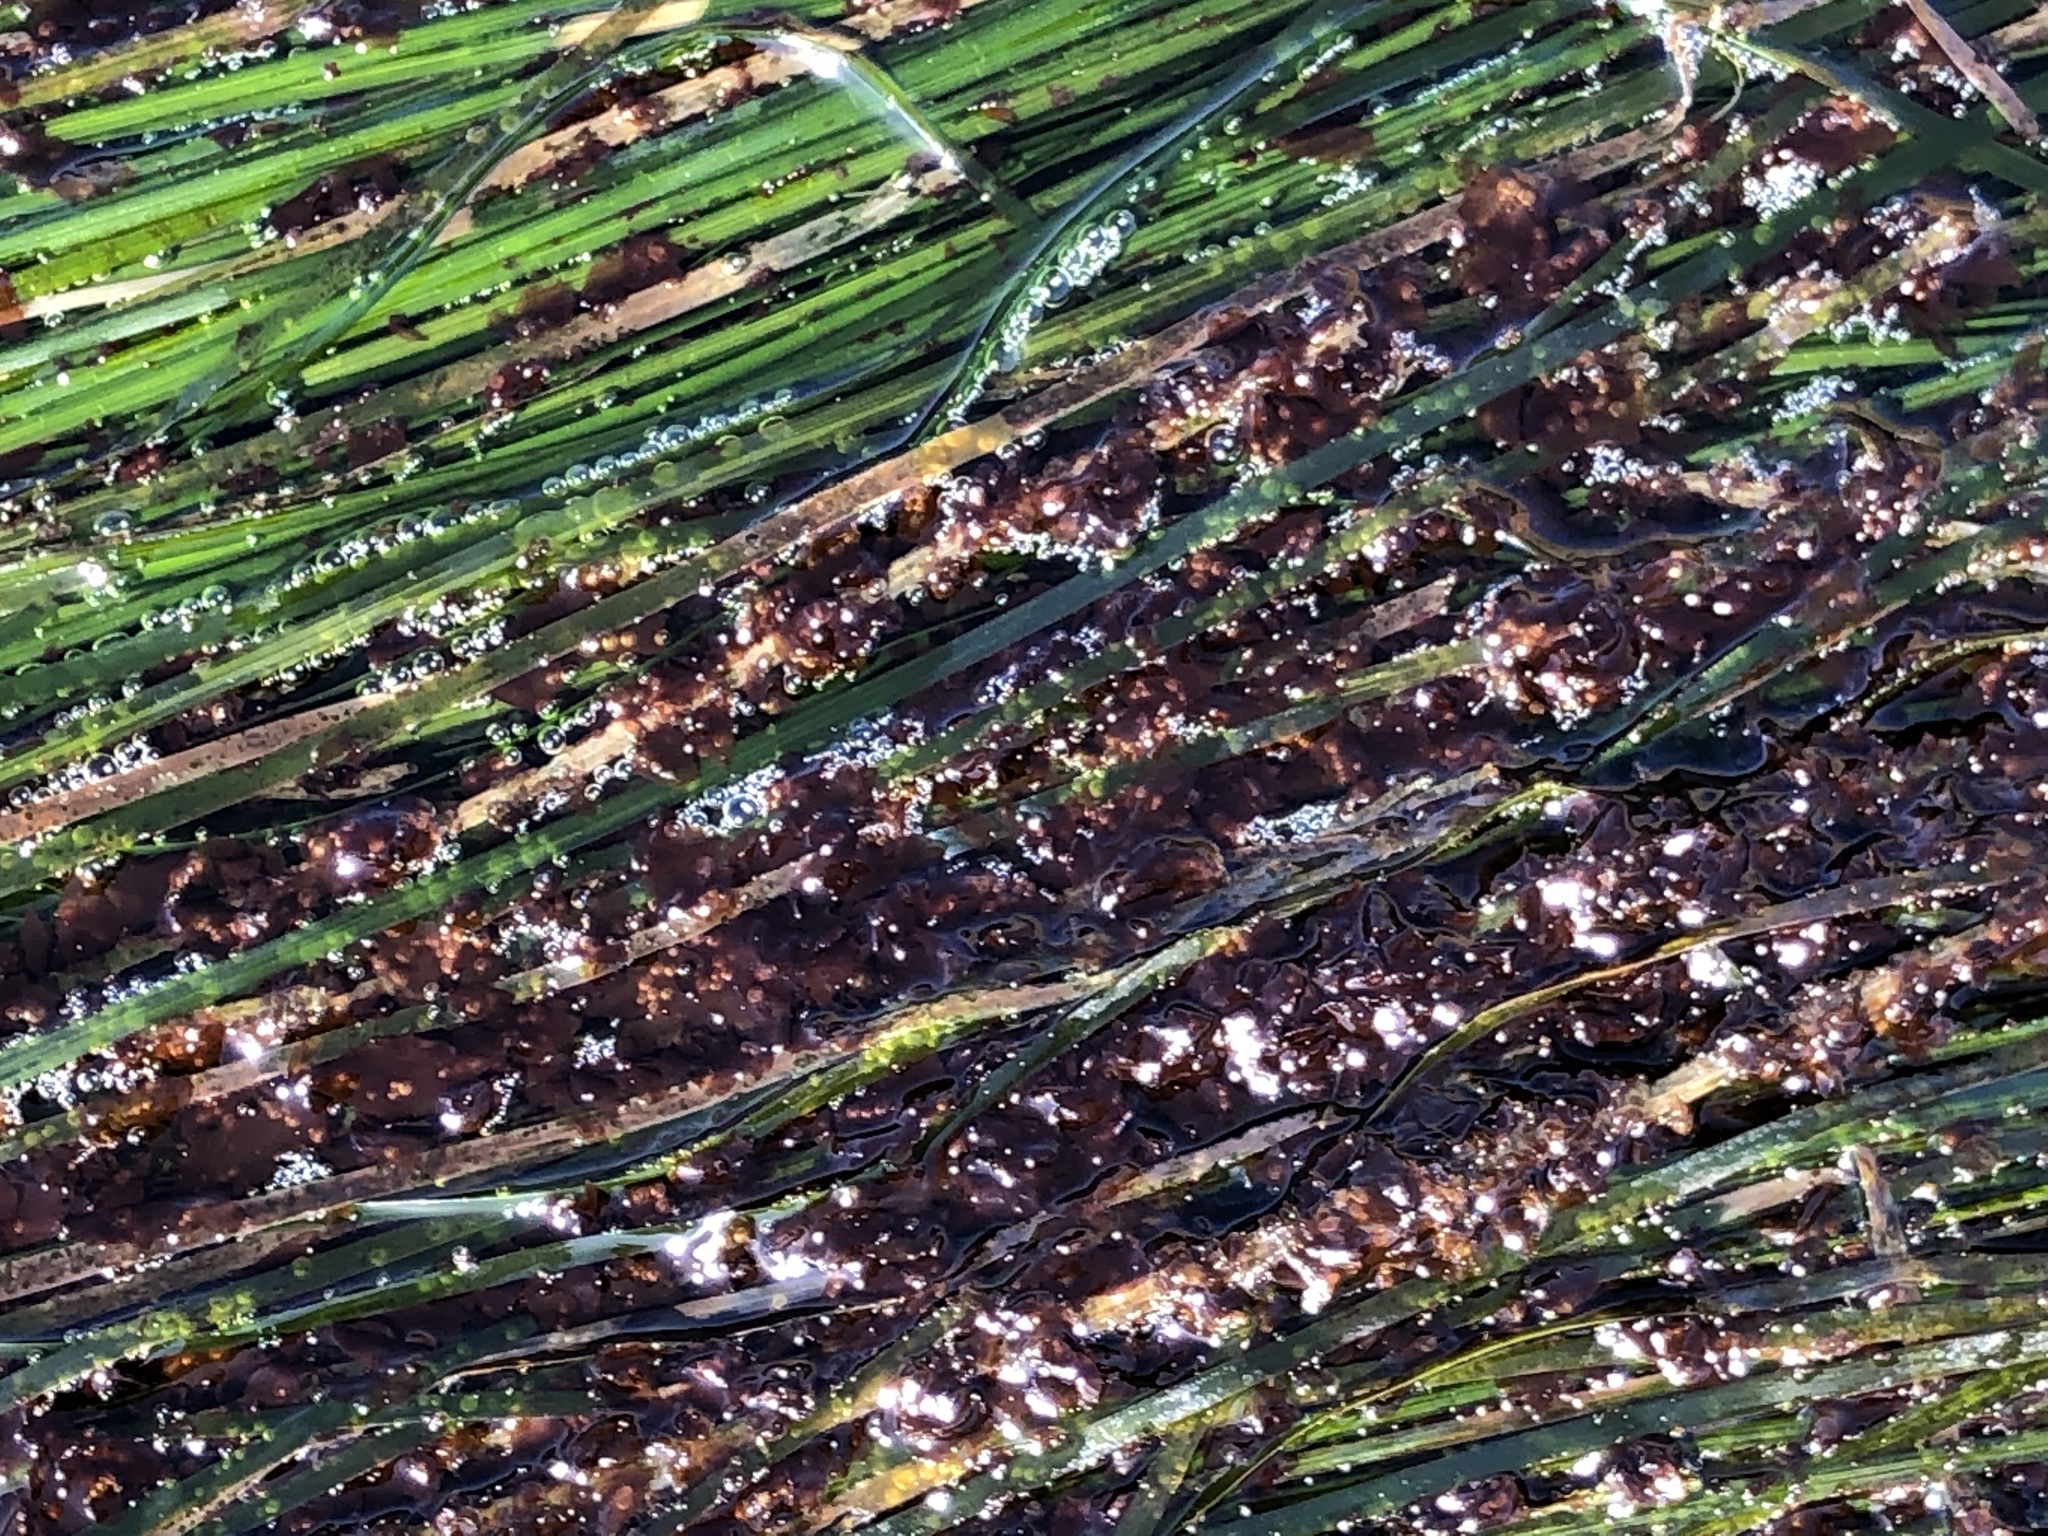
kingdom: Plantae
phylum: Rhodophyta
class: Compsopogonophyceae
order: Erythropeltidales
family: Erythrotrichiaceae
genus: Smithora
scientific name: Smithora naiadum
